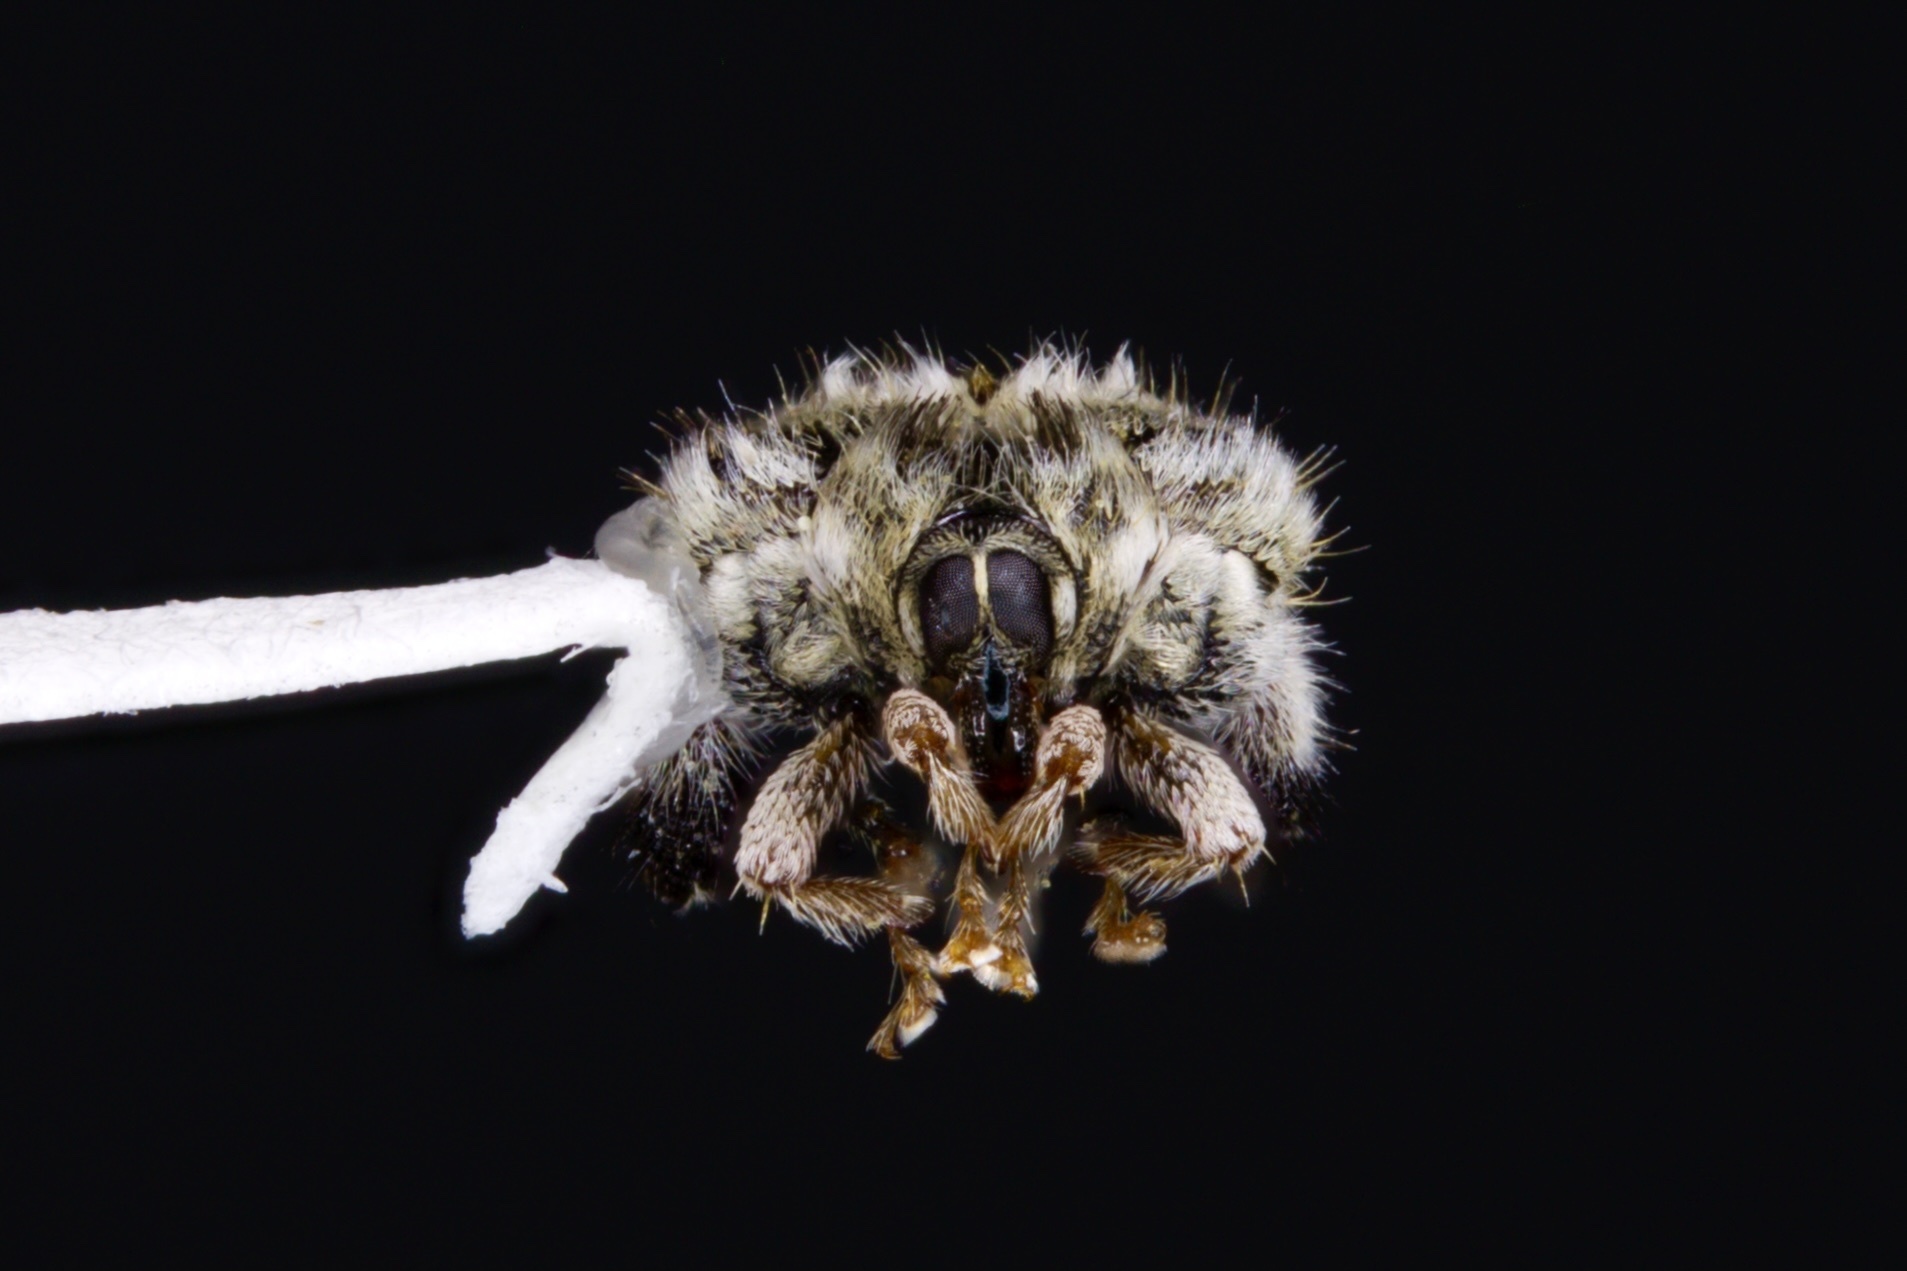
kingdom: Animalia
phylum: Arthropoda
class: Insecta
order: Coleoptera
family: Curculionidae
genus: Tachygonus
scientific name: Tachygonus lecontei
